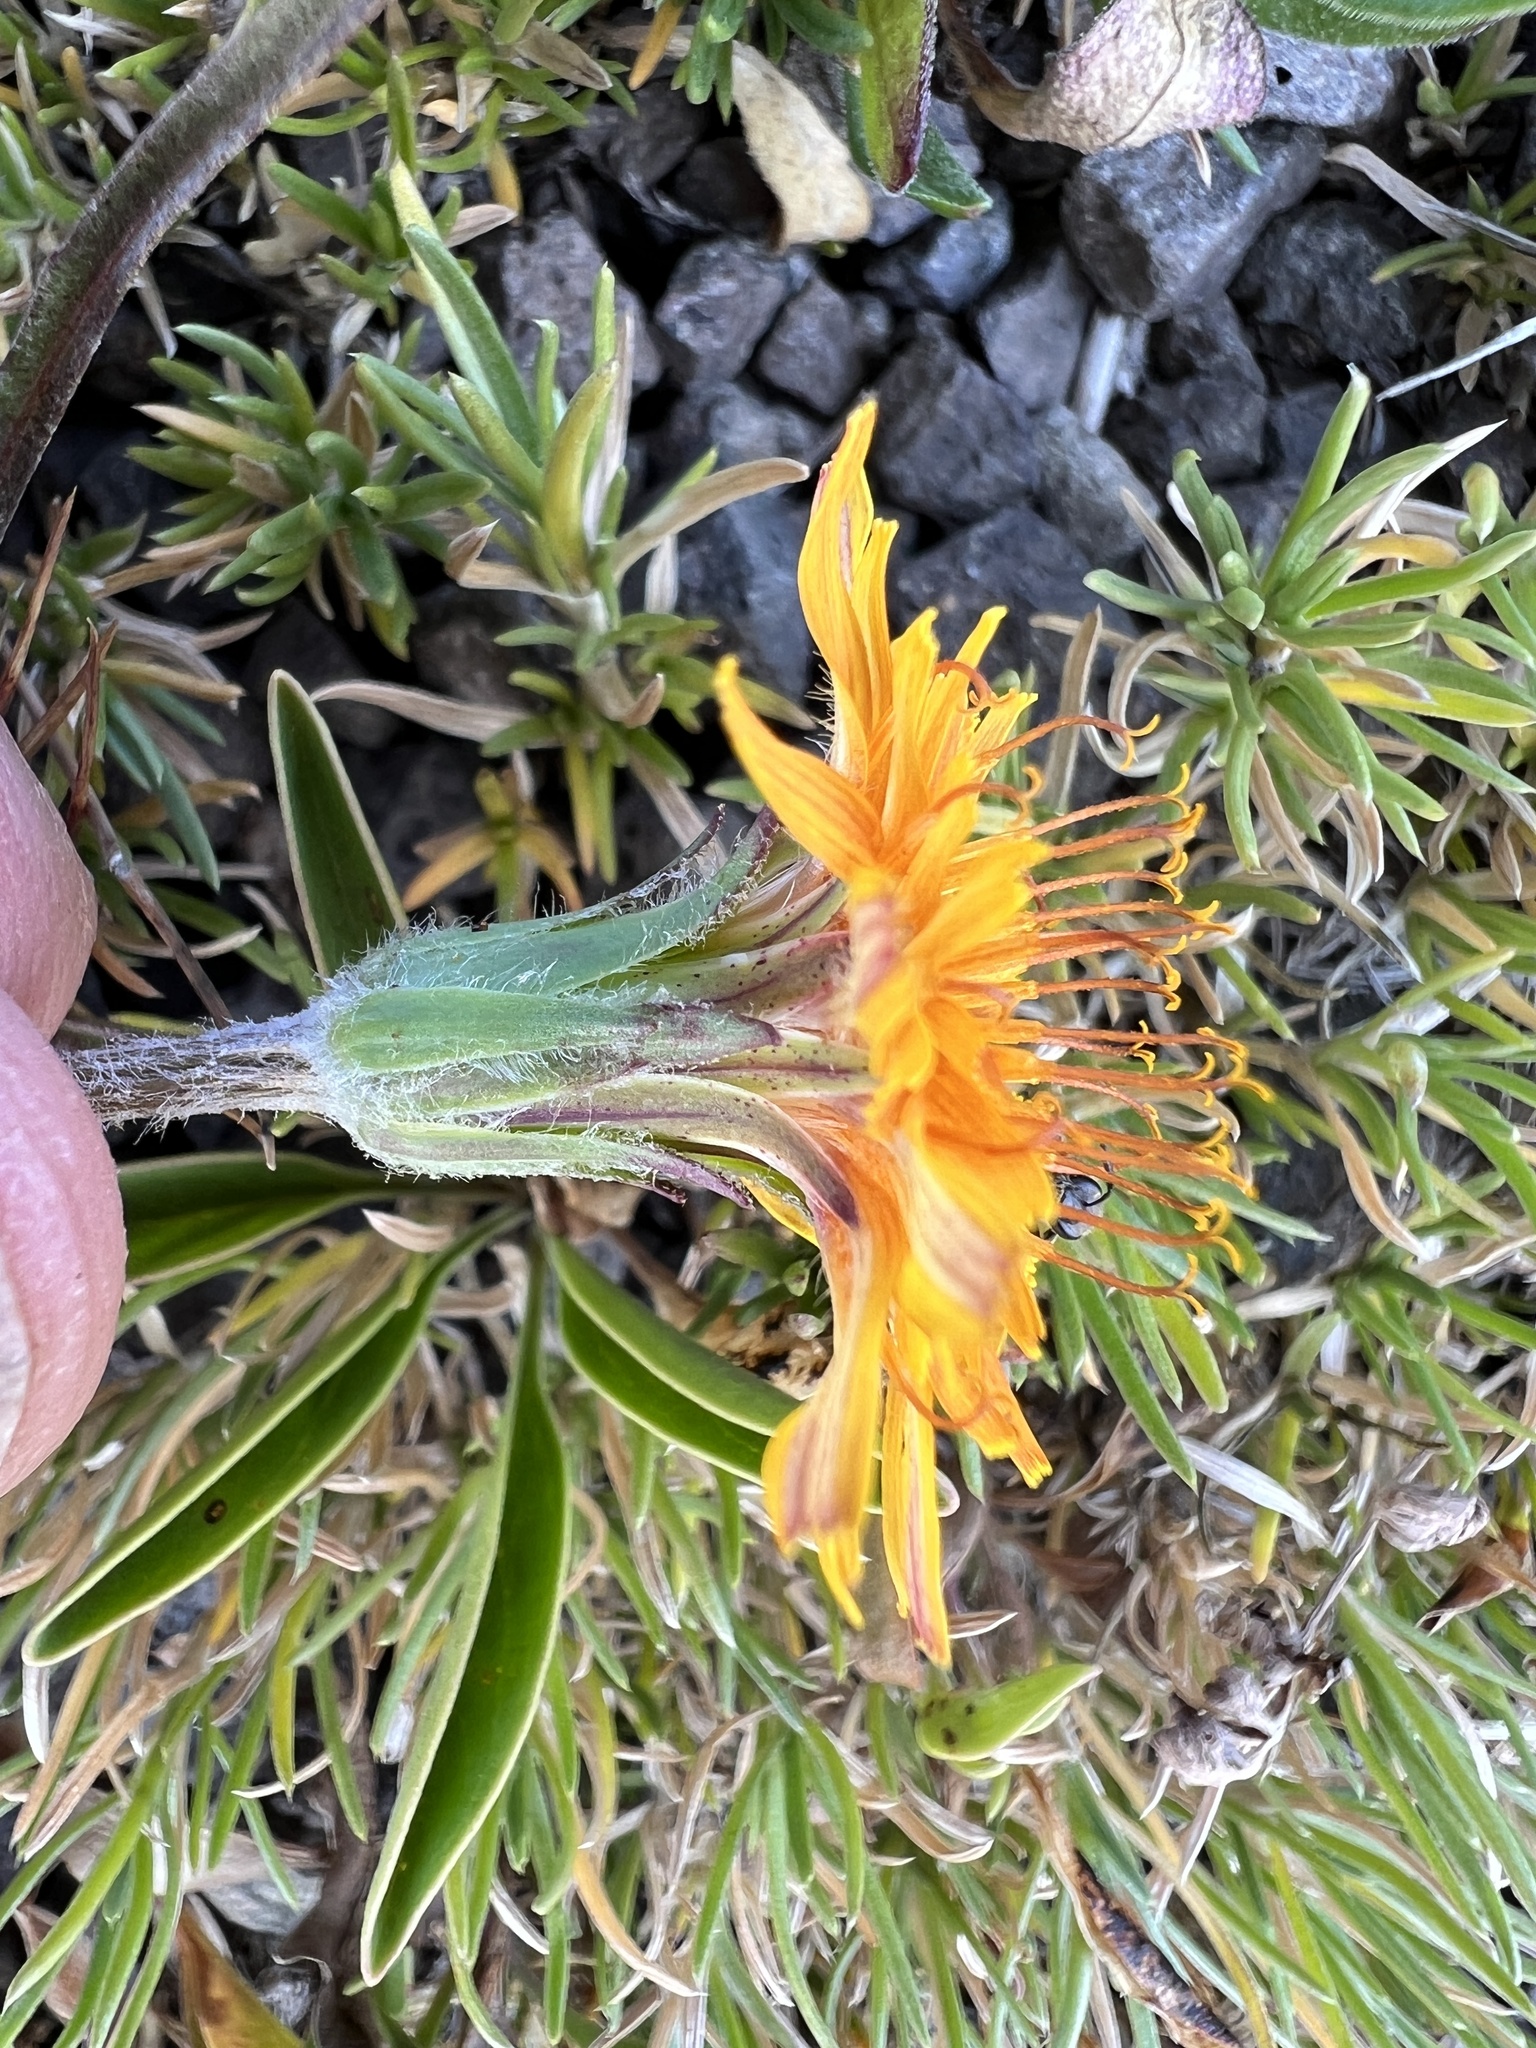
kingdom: Plantae
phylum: Tracheophyta
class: Magnoliopsida
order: Asterales
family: Asteraceae
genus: Agoseris
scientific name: Agoseris aurantiaca
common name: Mountain agoseris
